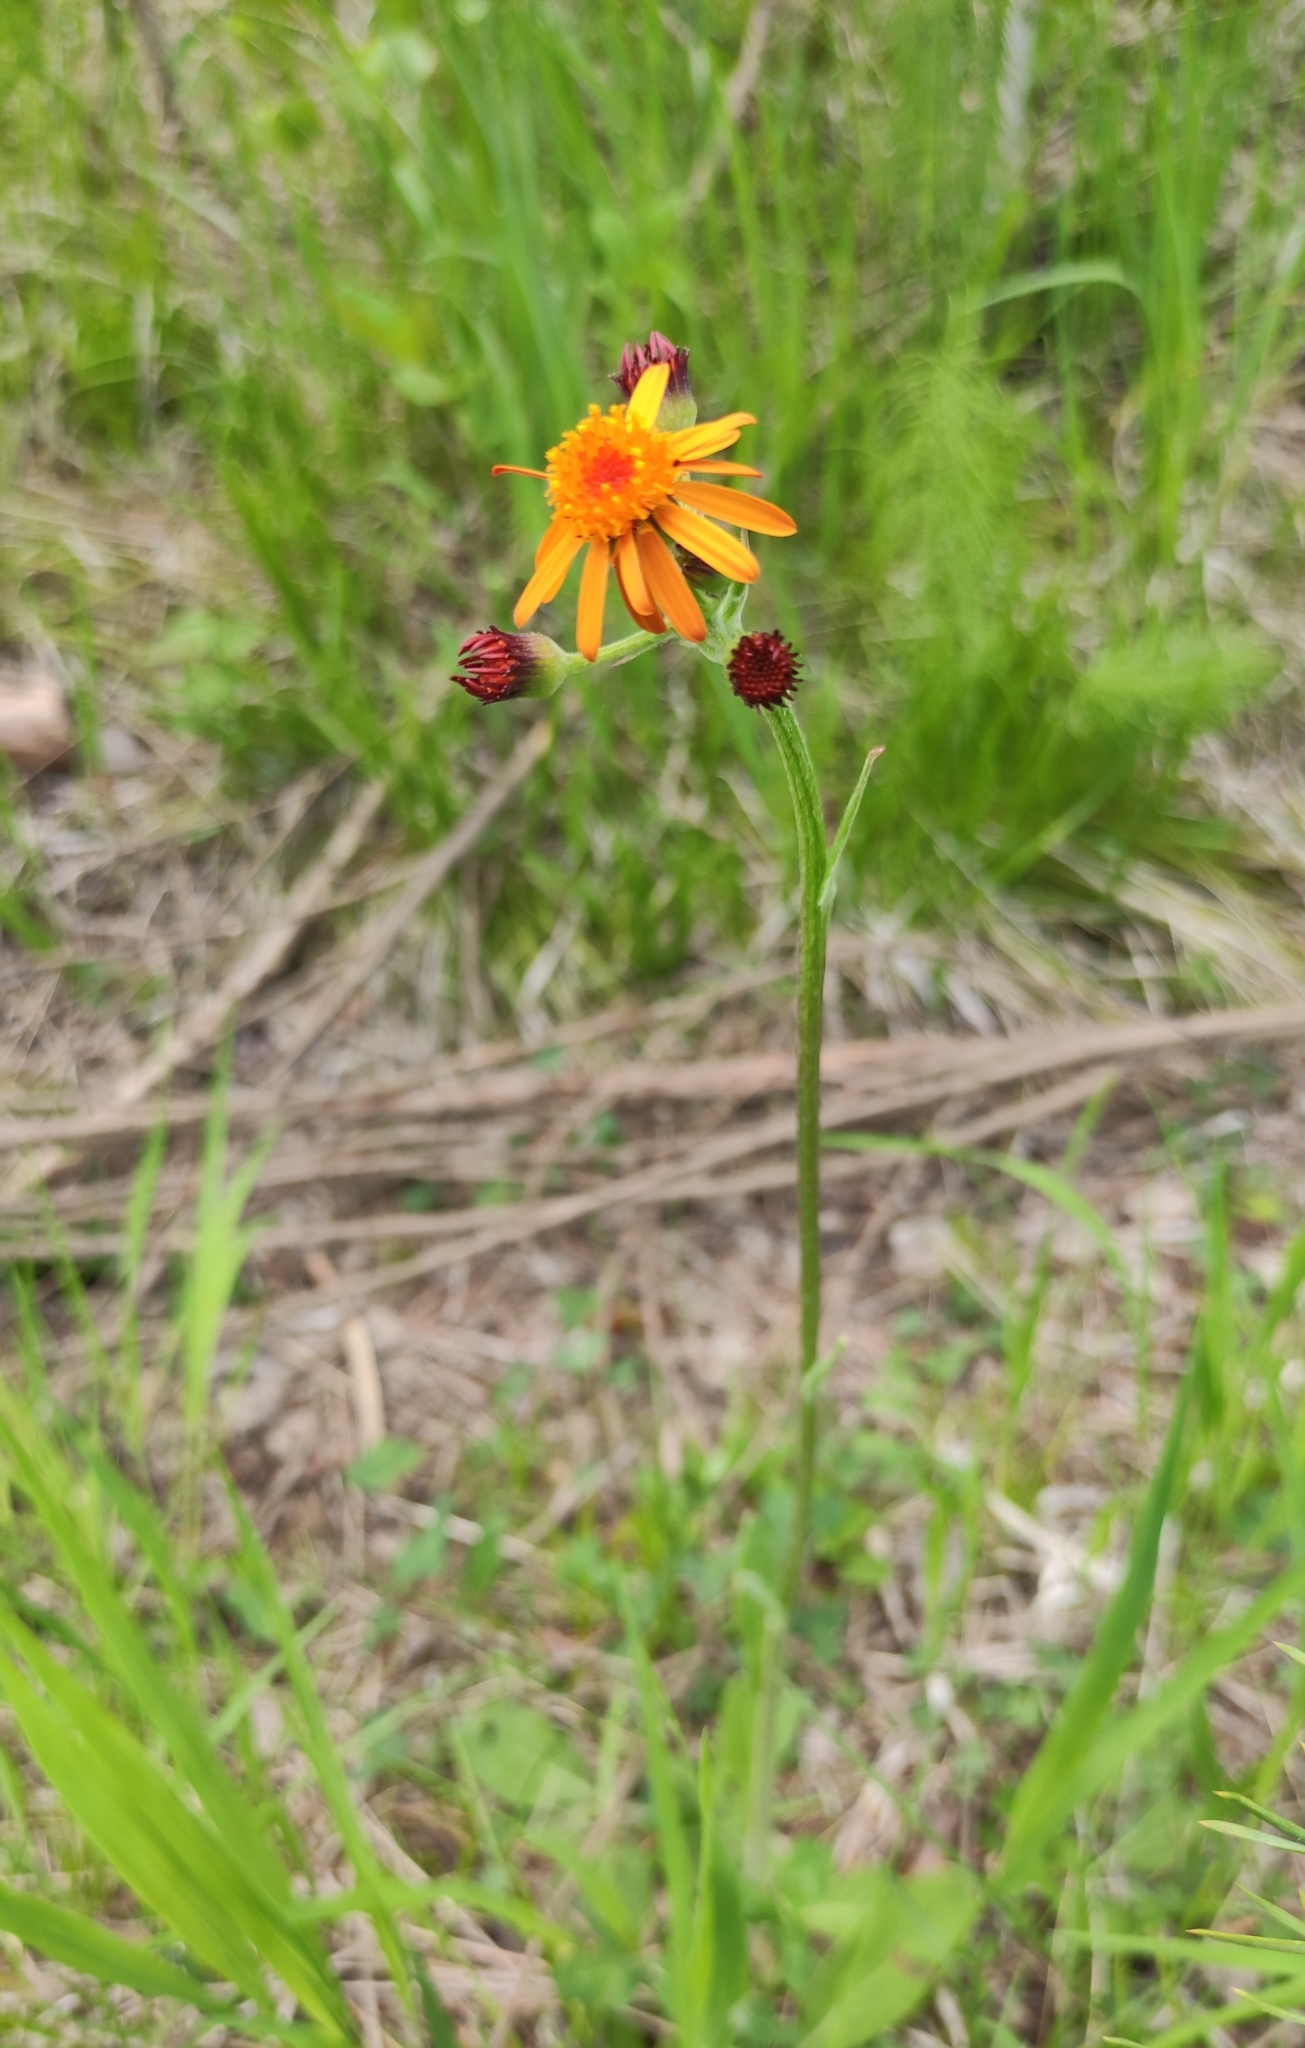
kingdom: Plantae
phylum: Tracheophyta
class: Magnoliopsida
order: Asterales
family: Asteraceae
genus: Tephroseris
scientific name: Tephroseris porphyrantha
